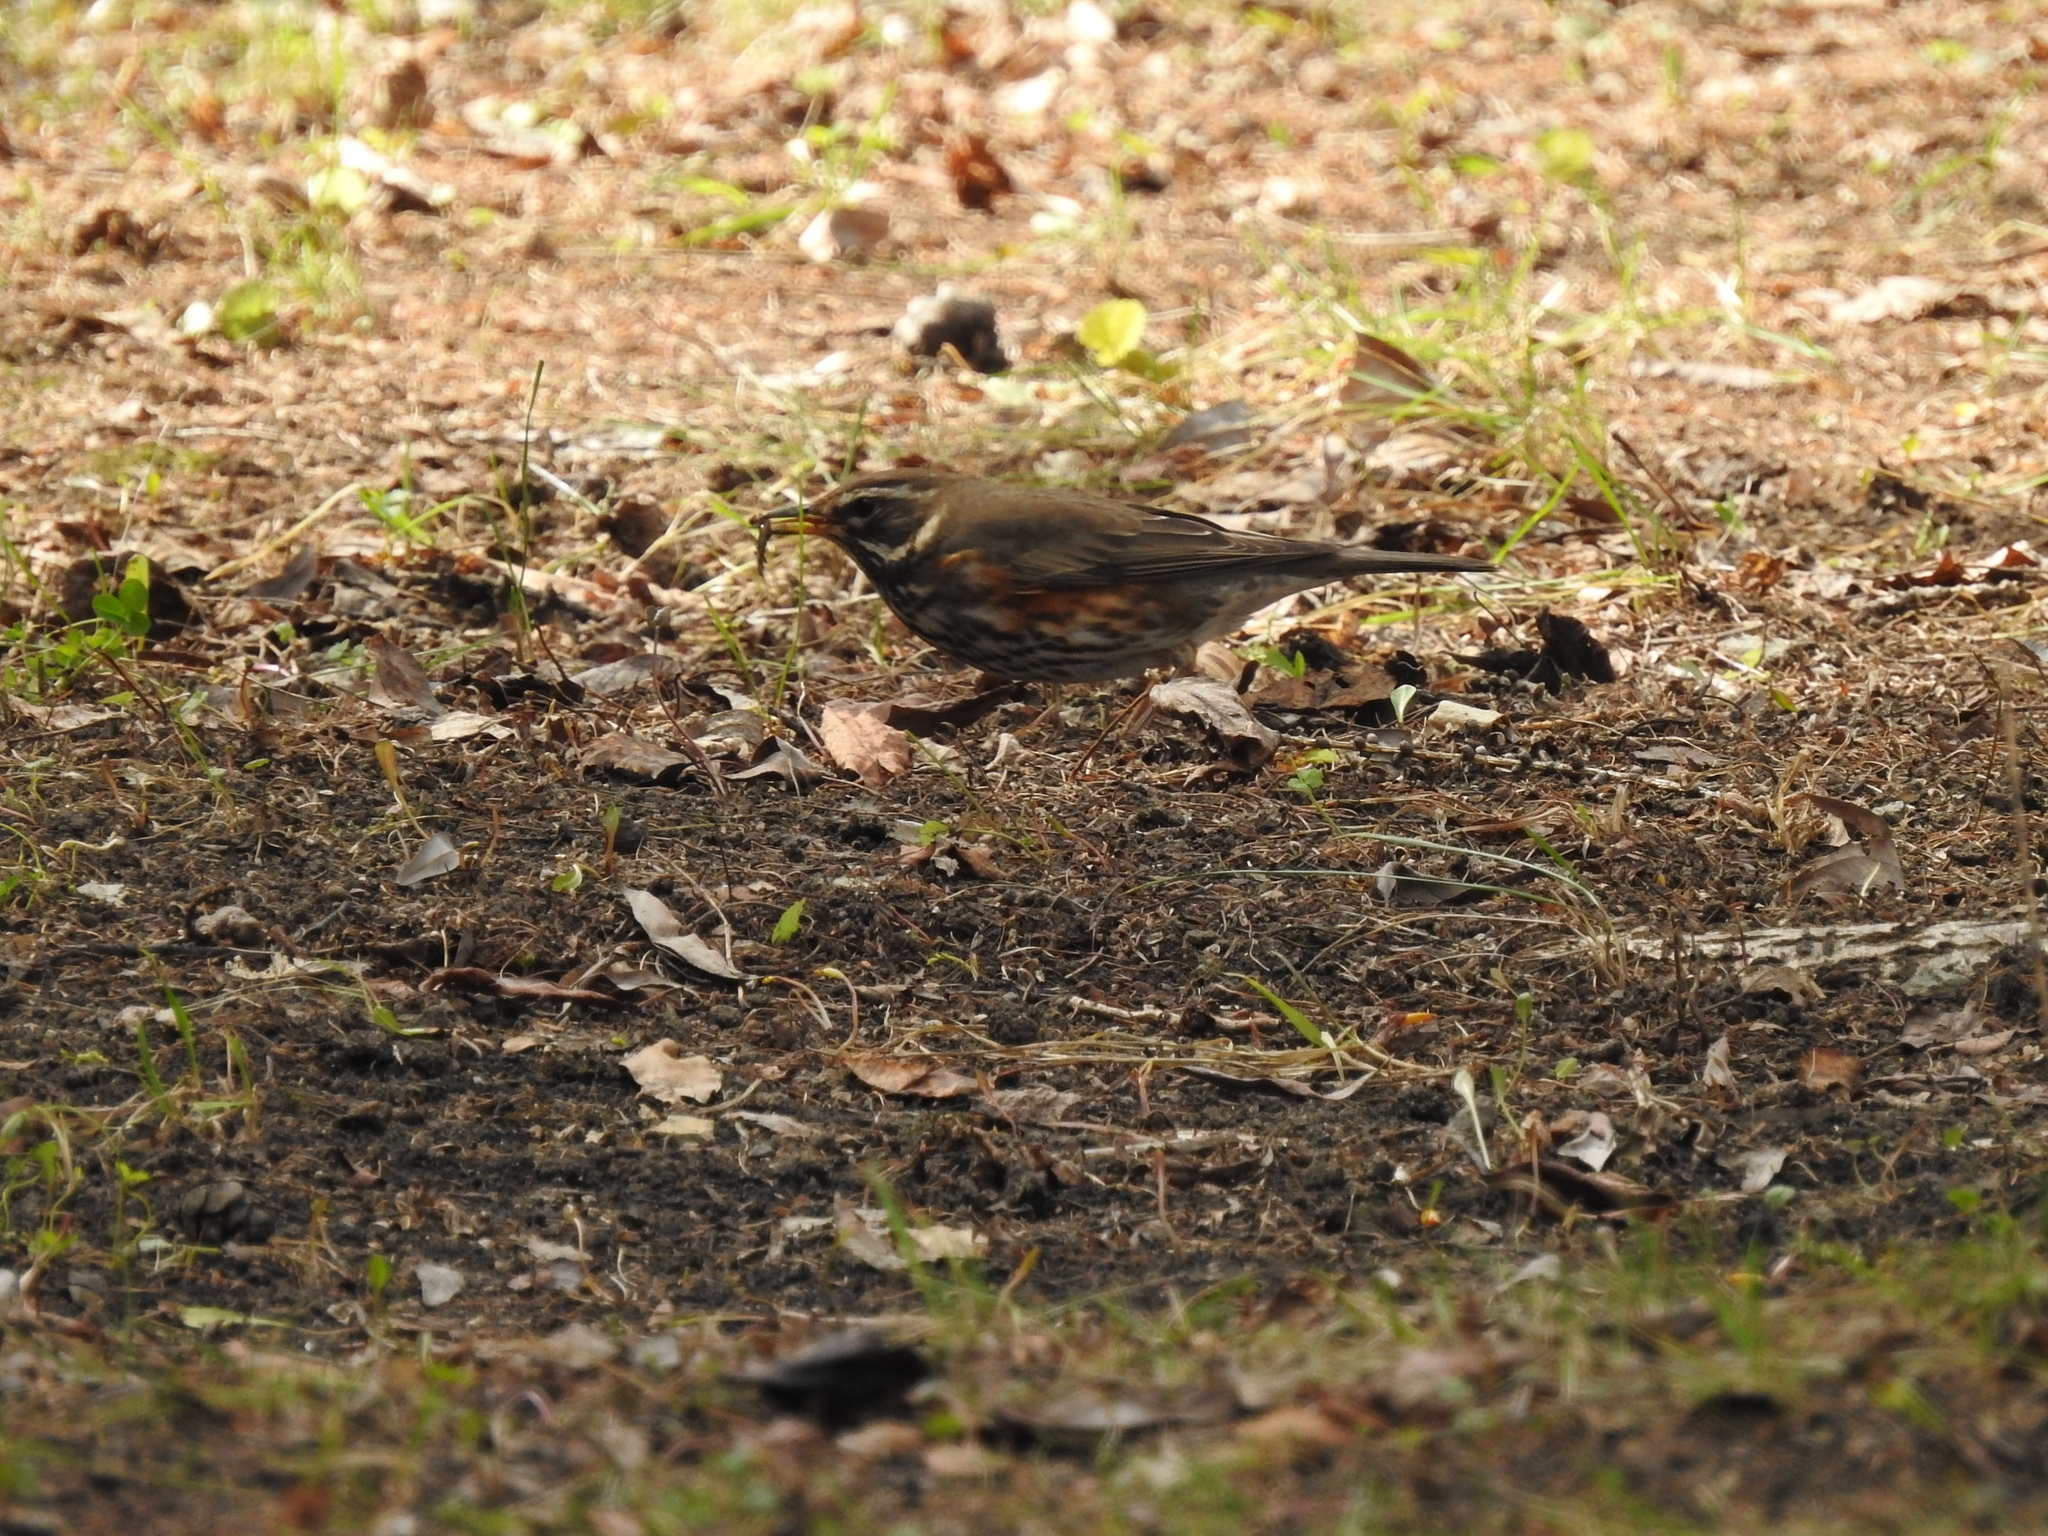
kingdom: Animalia
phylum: Chordata
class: Aves
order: Passeriformes
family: Turdidae
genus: Turdus
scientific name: Turdus iliacus
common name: Redwing
